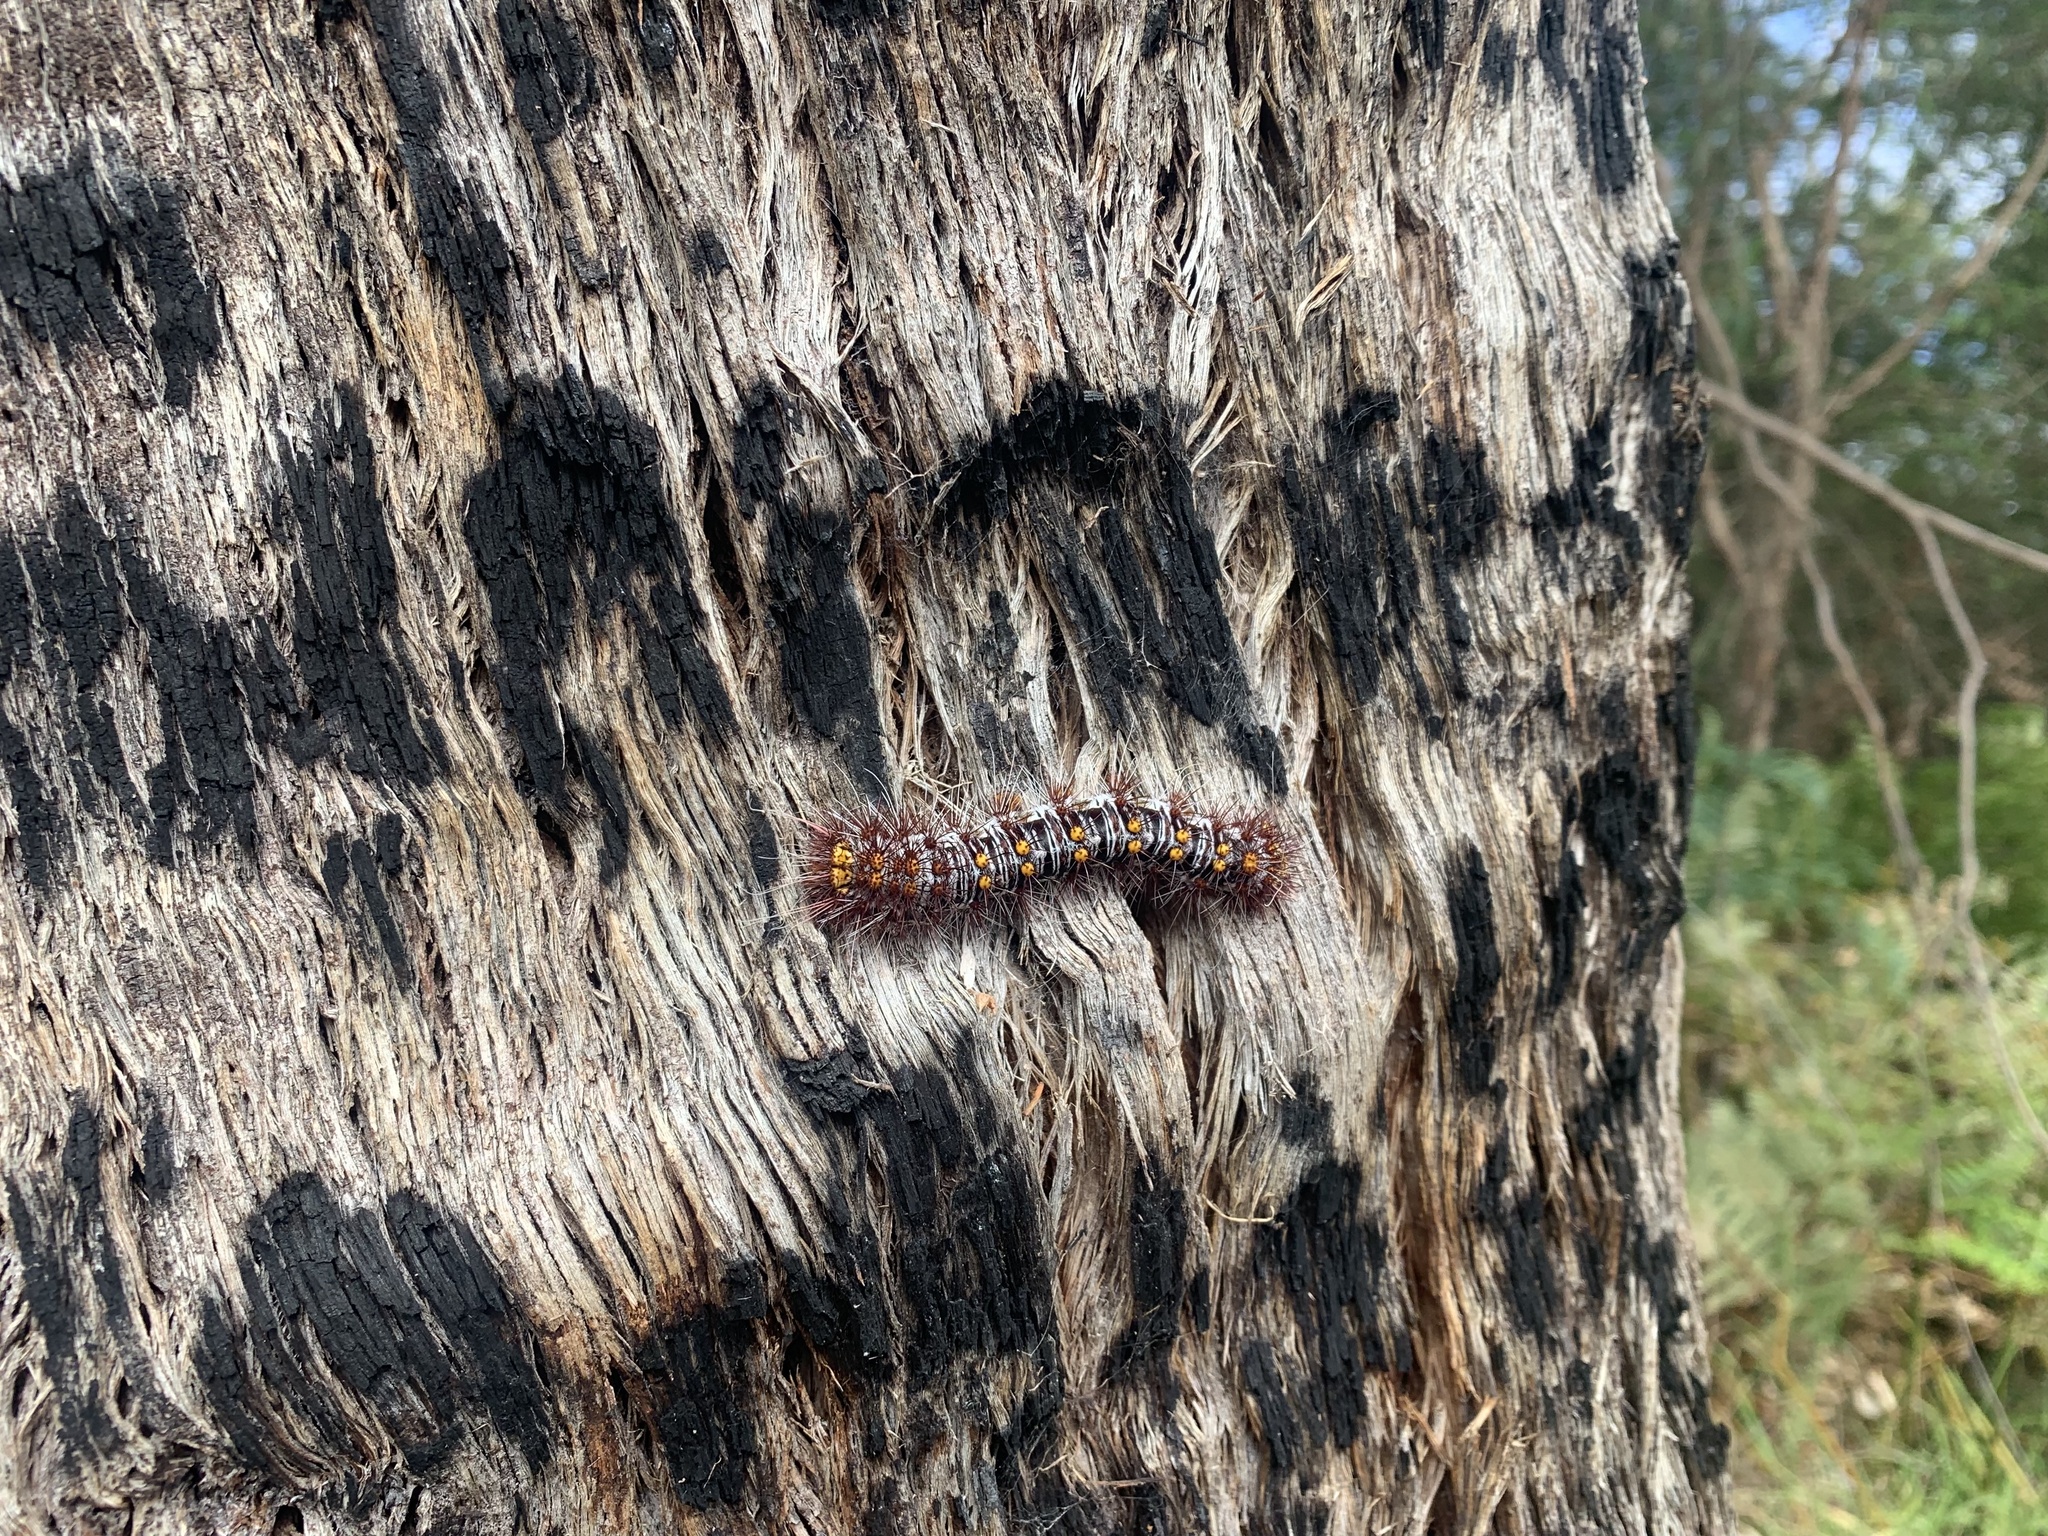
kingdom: Animalia
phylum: Arthropoda
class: Insecta
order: Lepidoptera
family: Anthelidae
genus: Chelepteryx
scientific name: Chelepteryx collesi
